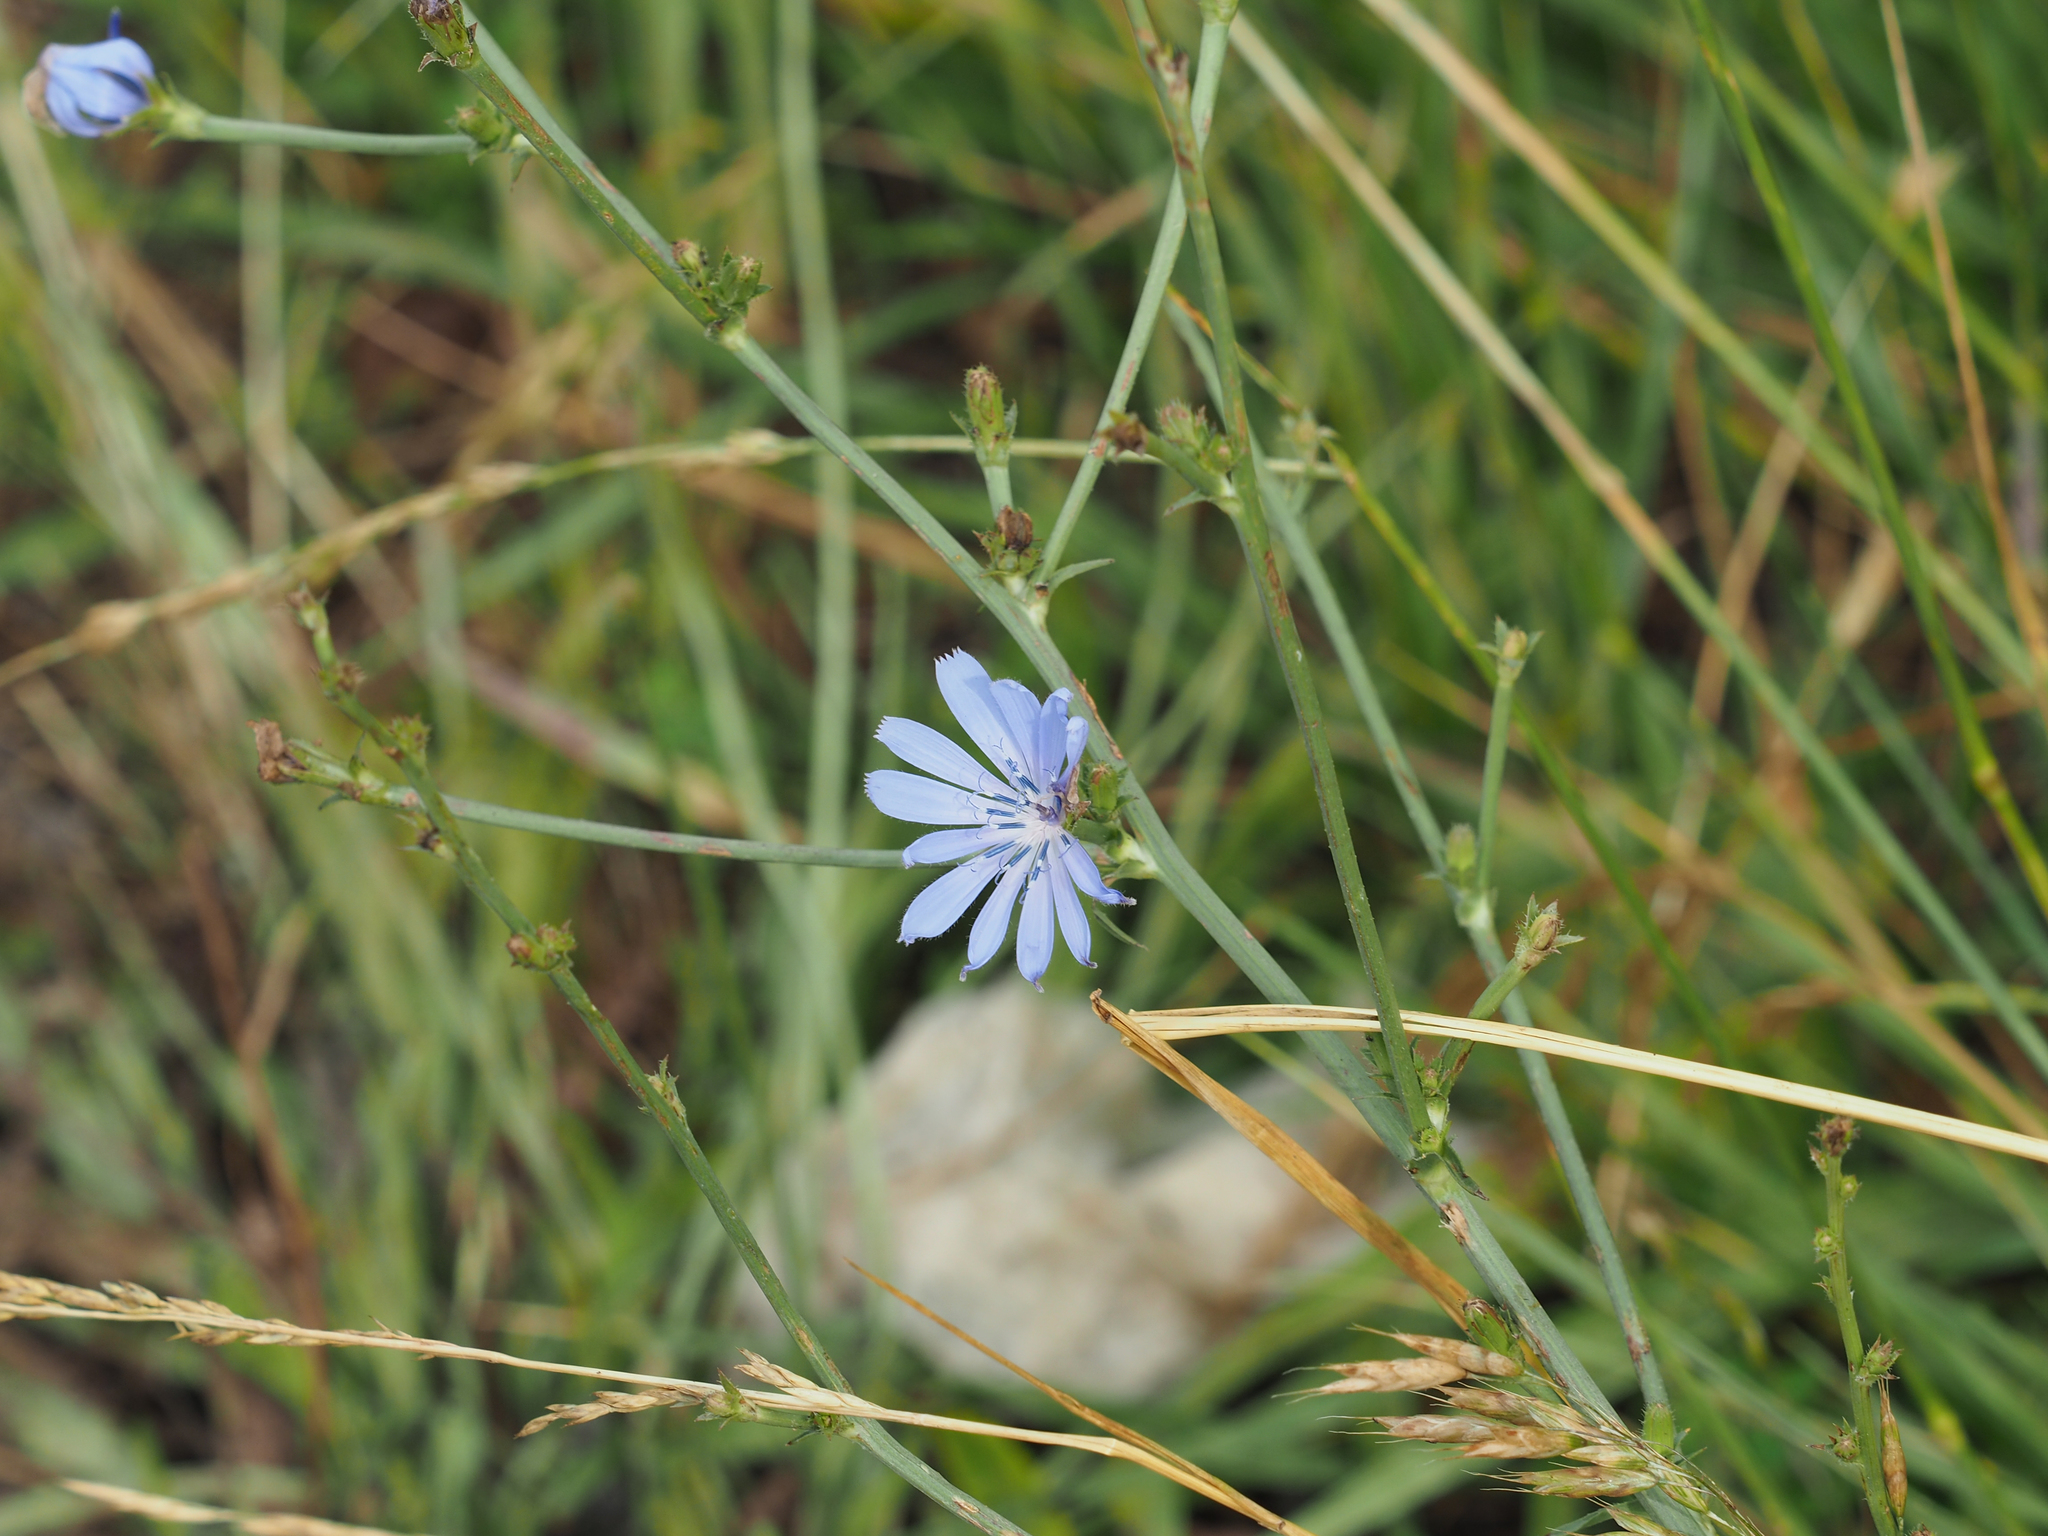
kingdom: Plantae
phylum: Tracheophyta
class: Magnoliopsida
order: Asterales
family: Asteraceae
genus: Cichorium
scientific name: Cichorium intybus
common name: Chicory
